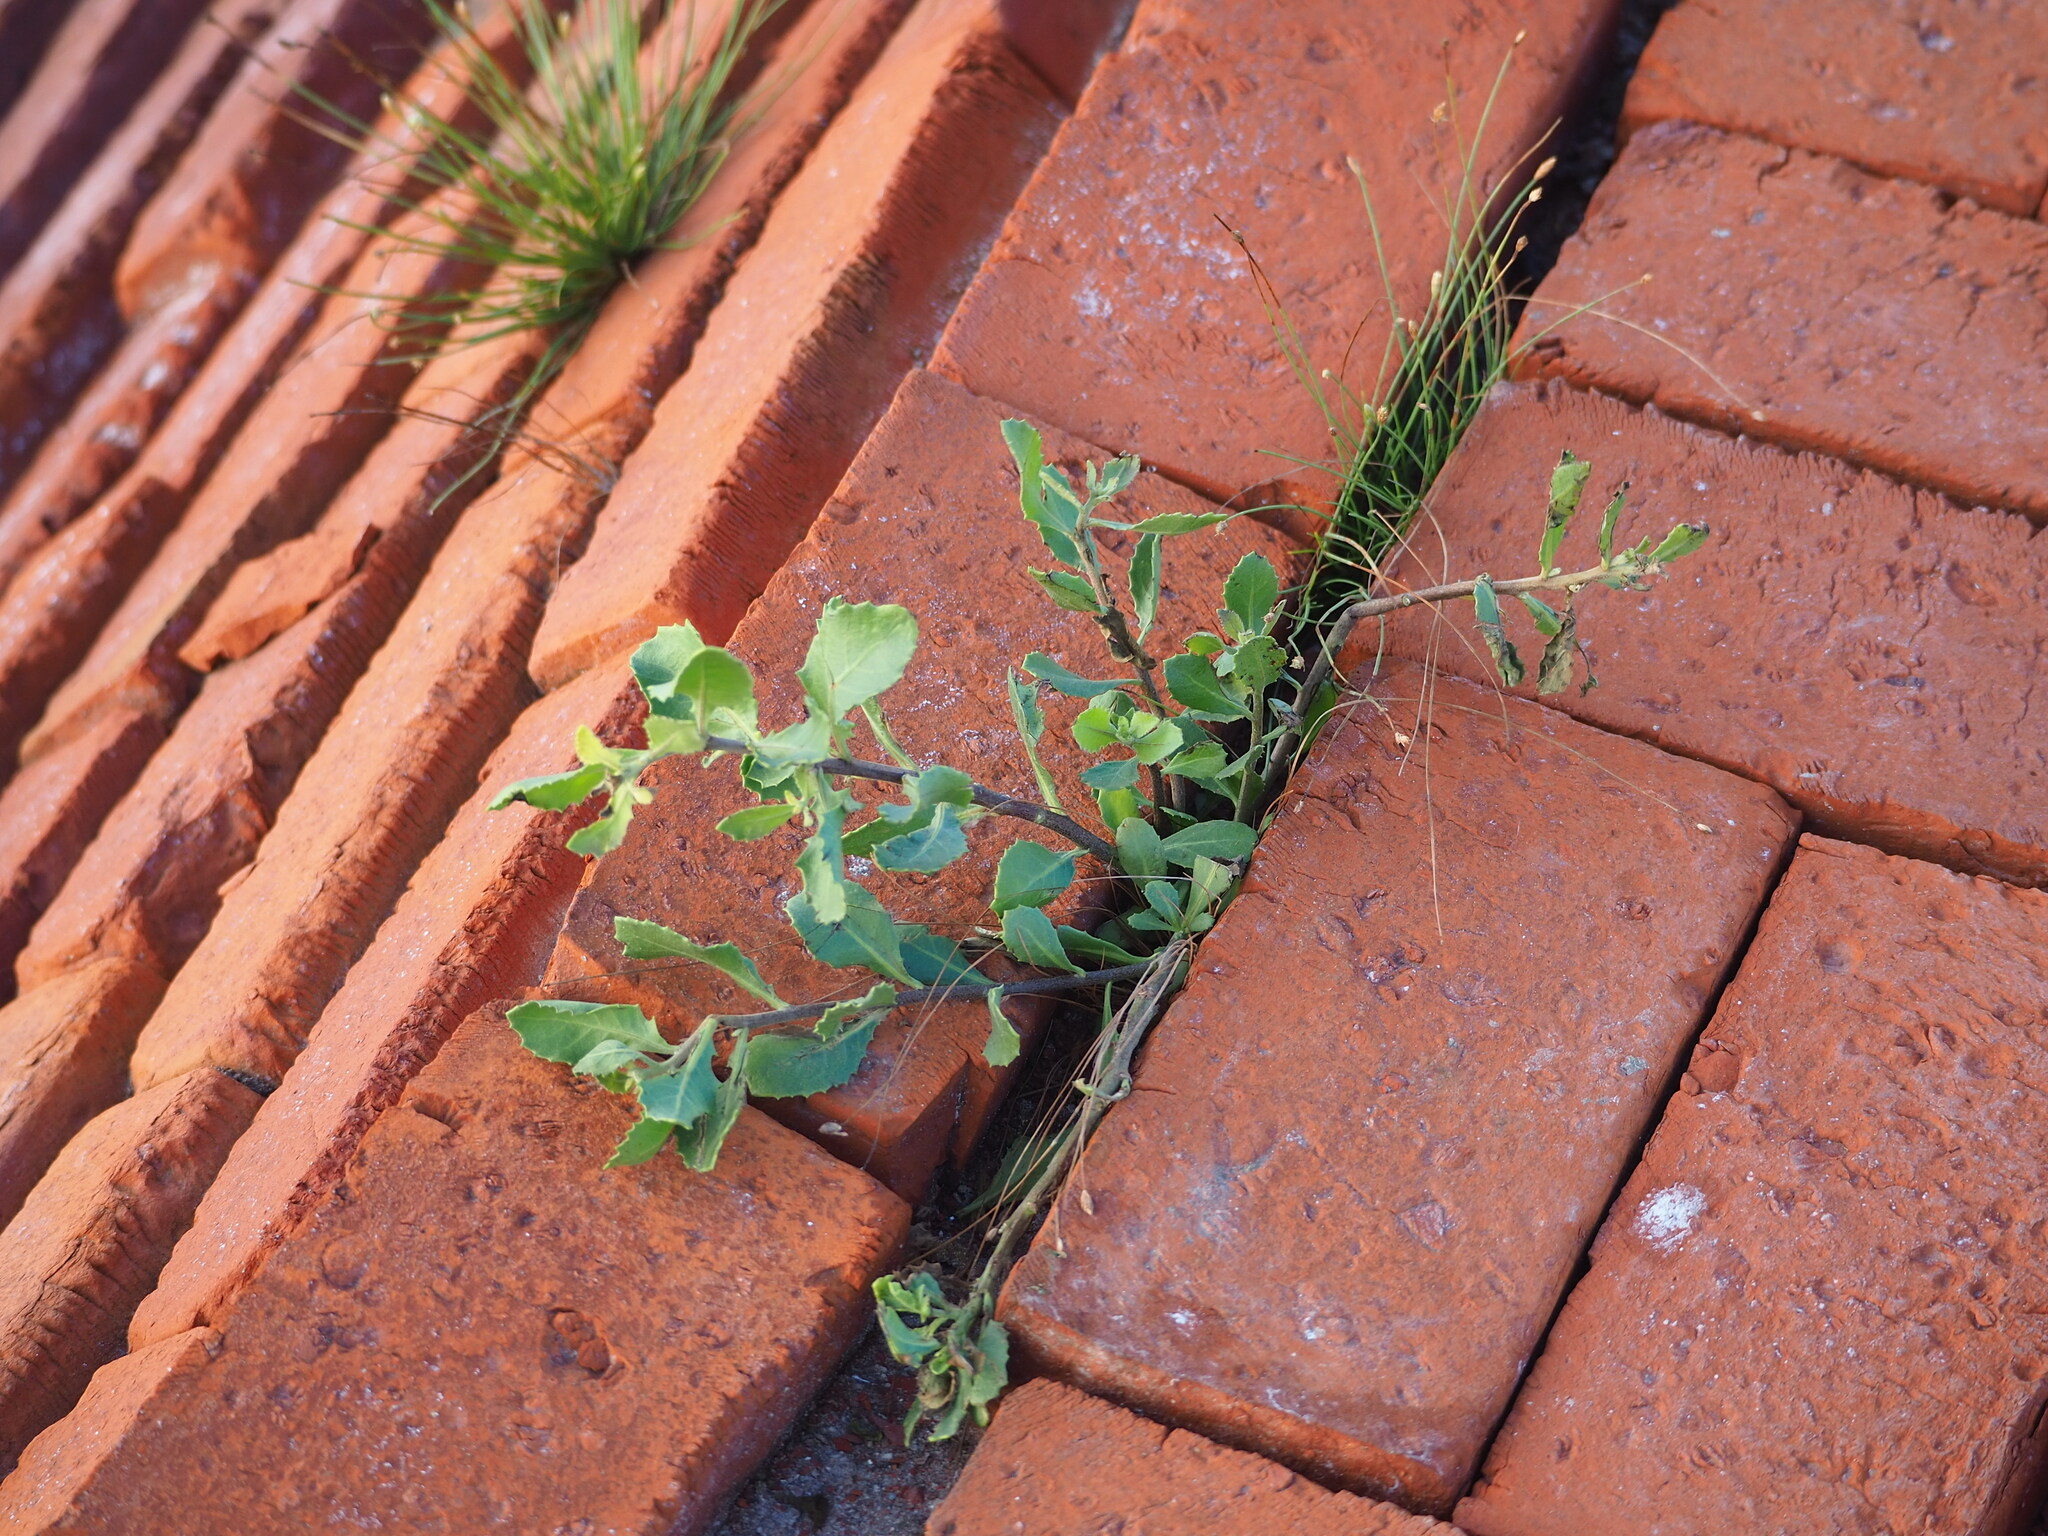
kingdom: Plantae
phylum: Tracheophyta
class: Magnoliopsida
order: Asterales
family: Asteraceae
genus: Pluchea
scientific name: Pluchea pteropoda
